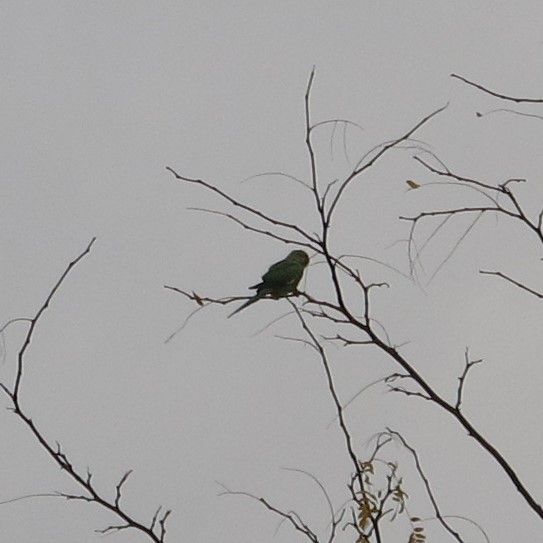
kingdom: Animalia
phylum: Chordata
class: Aves
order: Psittaciformes
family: Psittacidae
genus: Psittacula
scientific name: Psittacula krameri
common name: Rose-ringed parakeet
